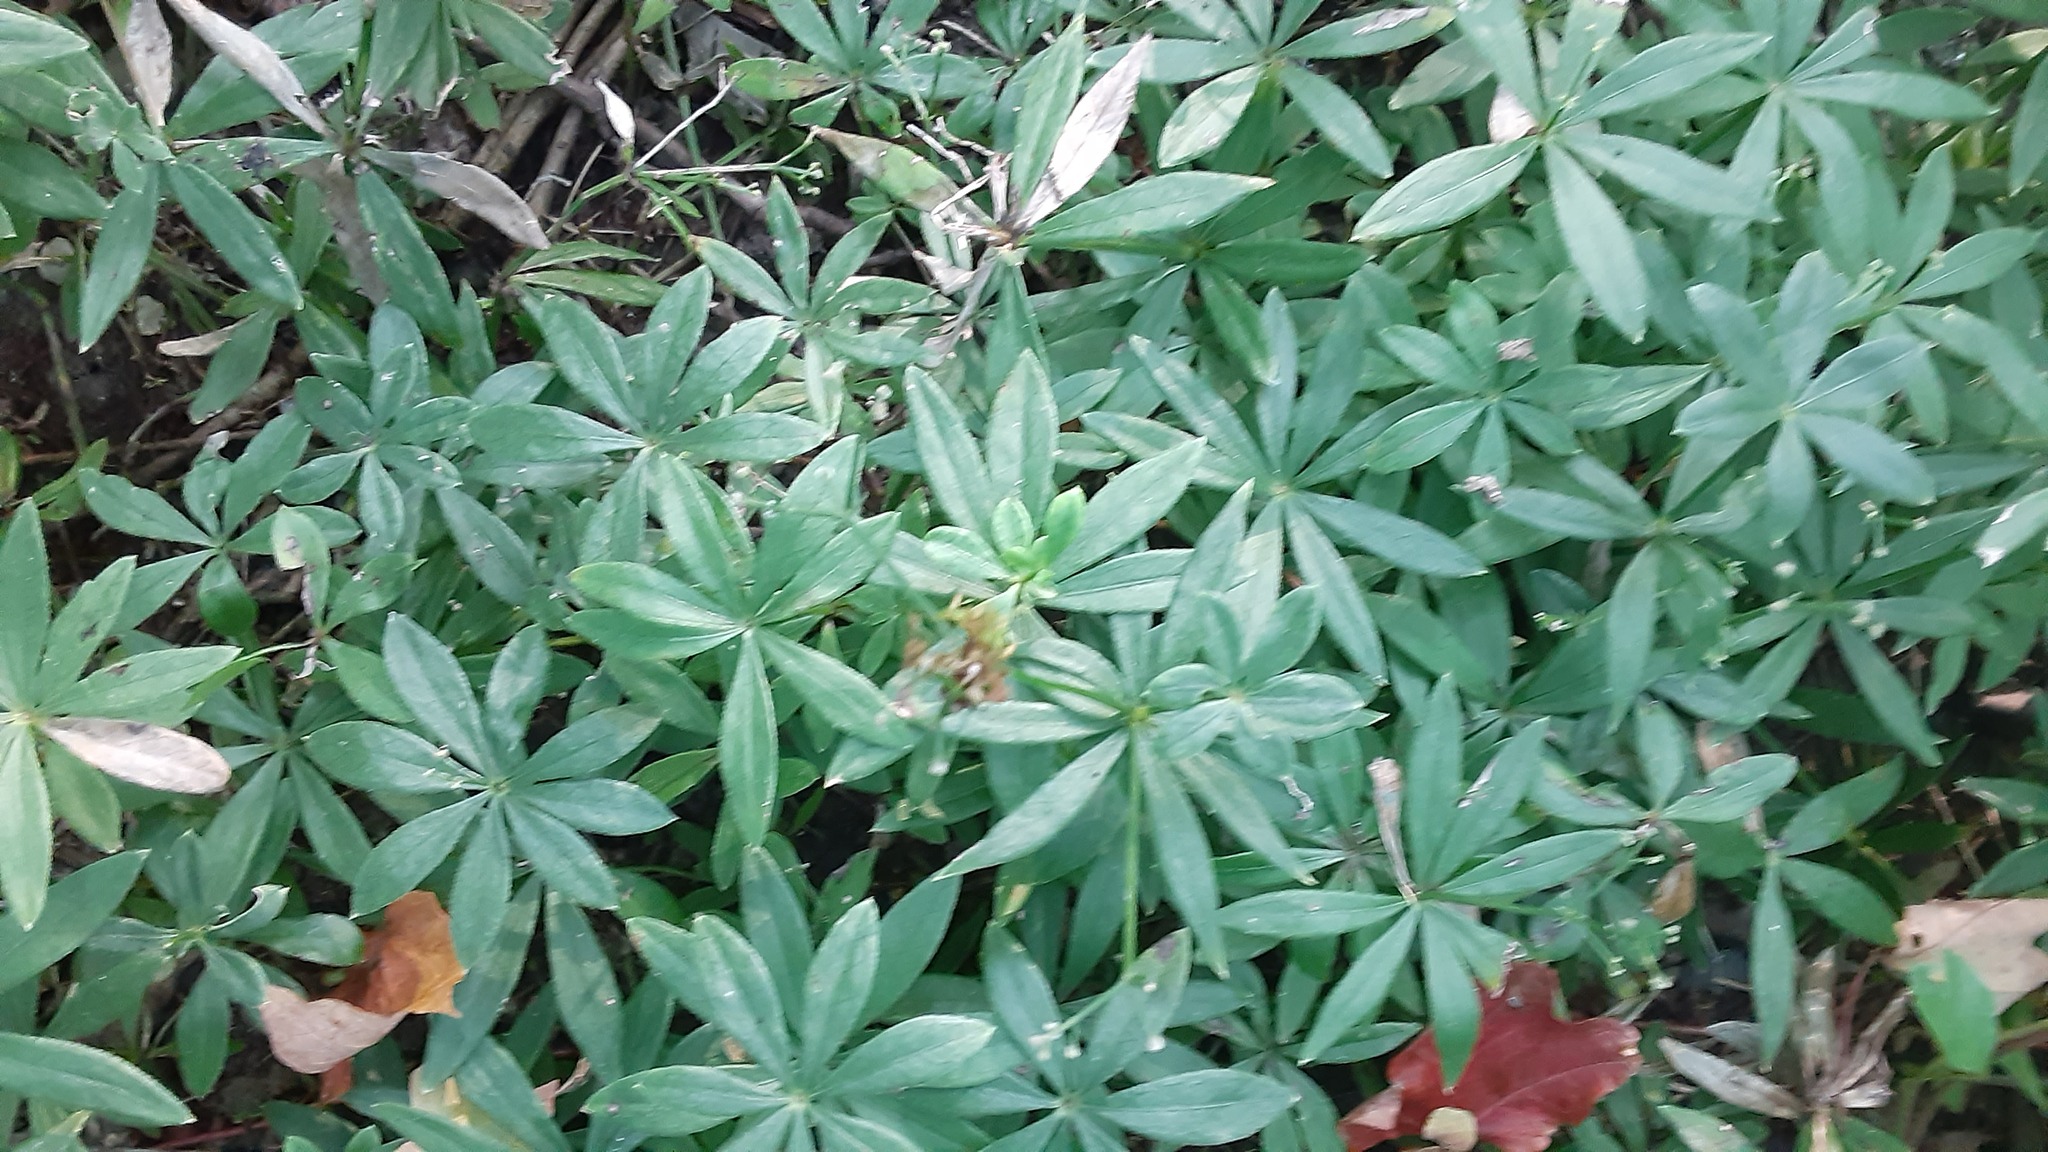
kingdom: Plantae
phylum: Tracheophyta
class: Magnoliopsida
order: Gentianales
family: Rubiaceae
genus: Galium
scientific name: Galium odoratum
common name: Sweet woodruff
